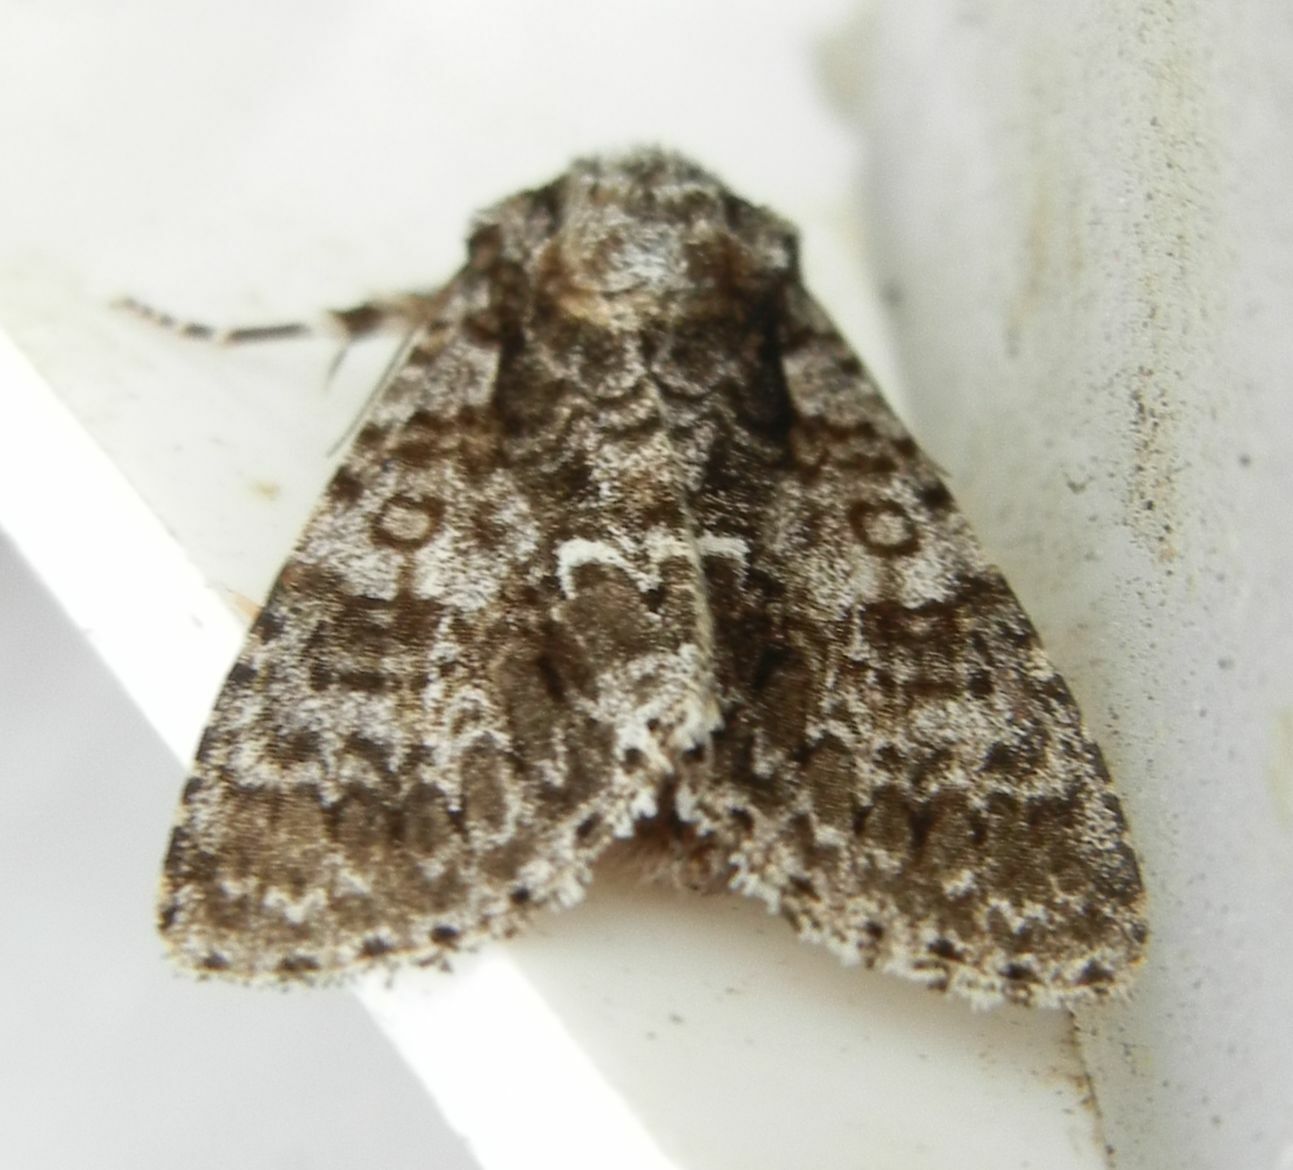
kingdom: Animalia
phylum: Arthropoda
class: Insecta
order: Lepidoptera
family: Noctuidae
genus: Acronicta
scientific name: Acronicta rumicis
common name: Knot grass
